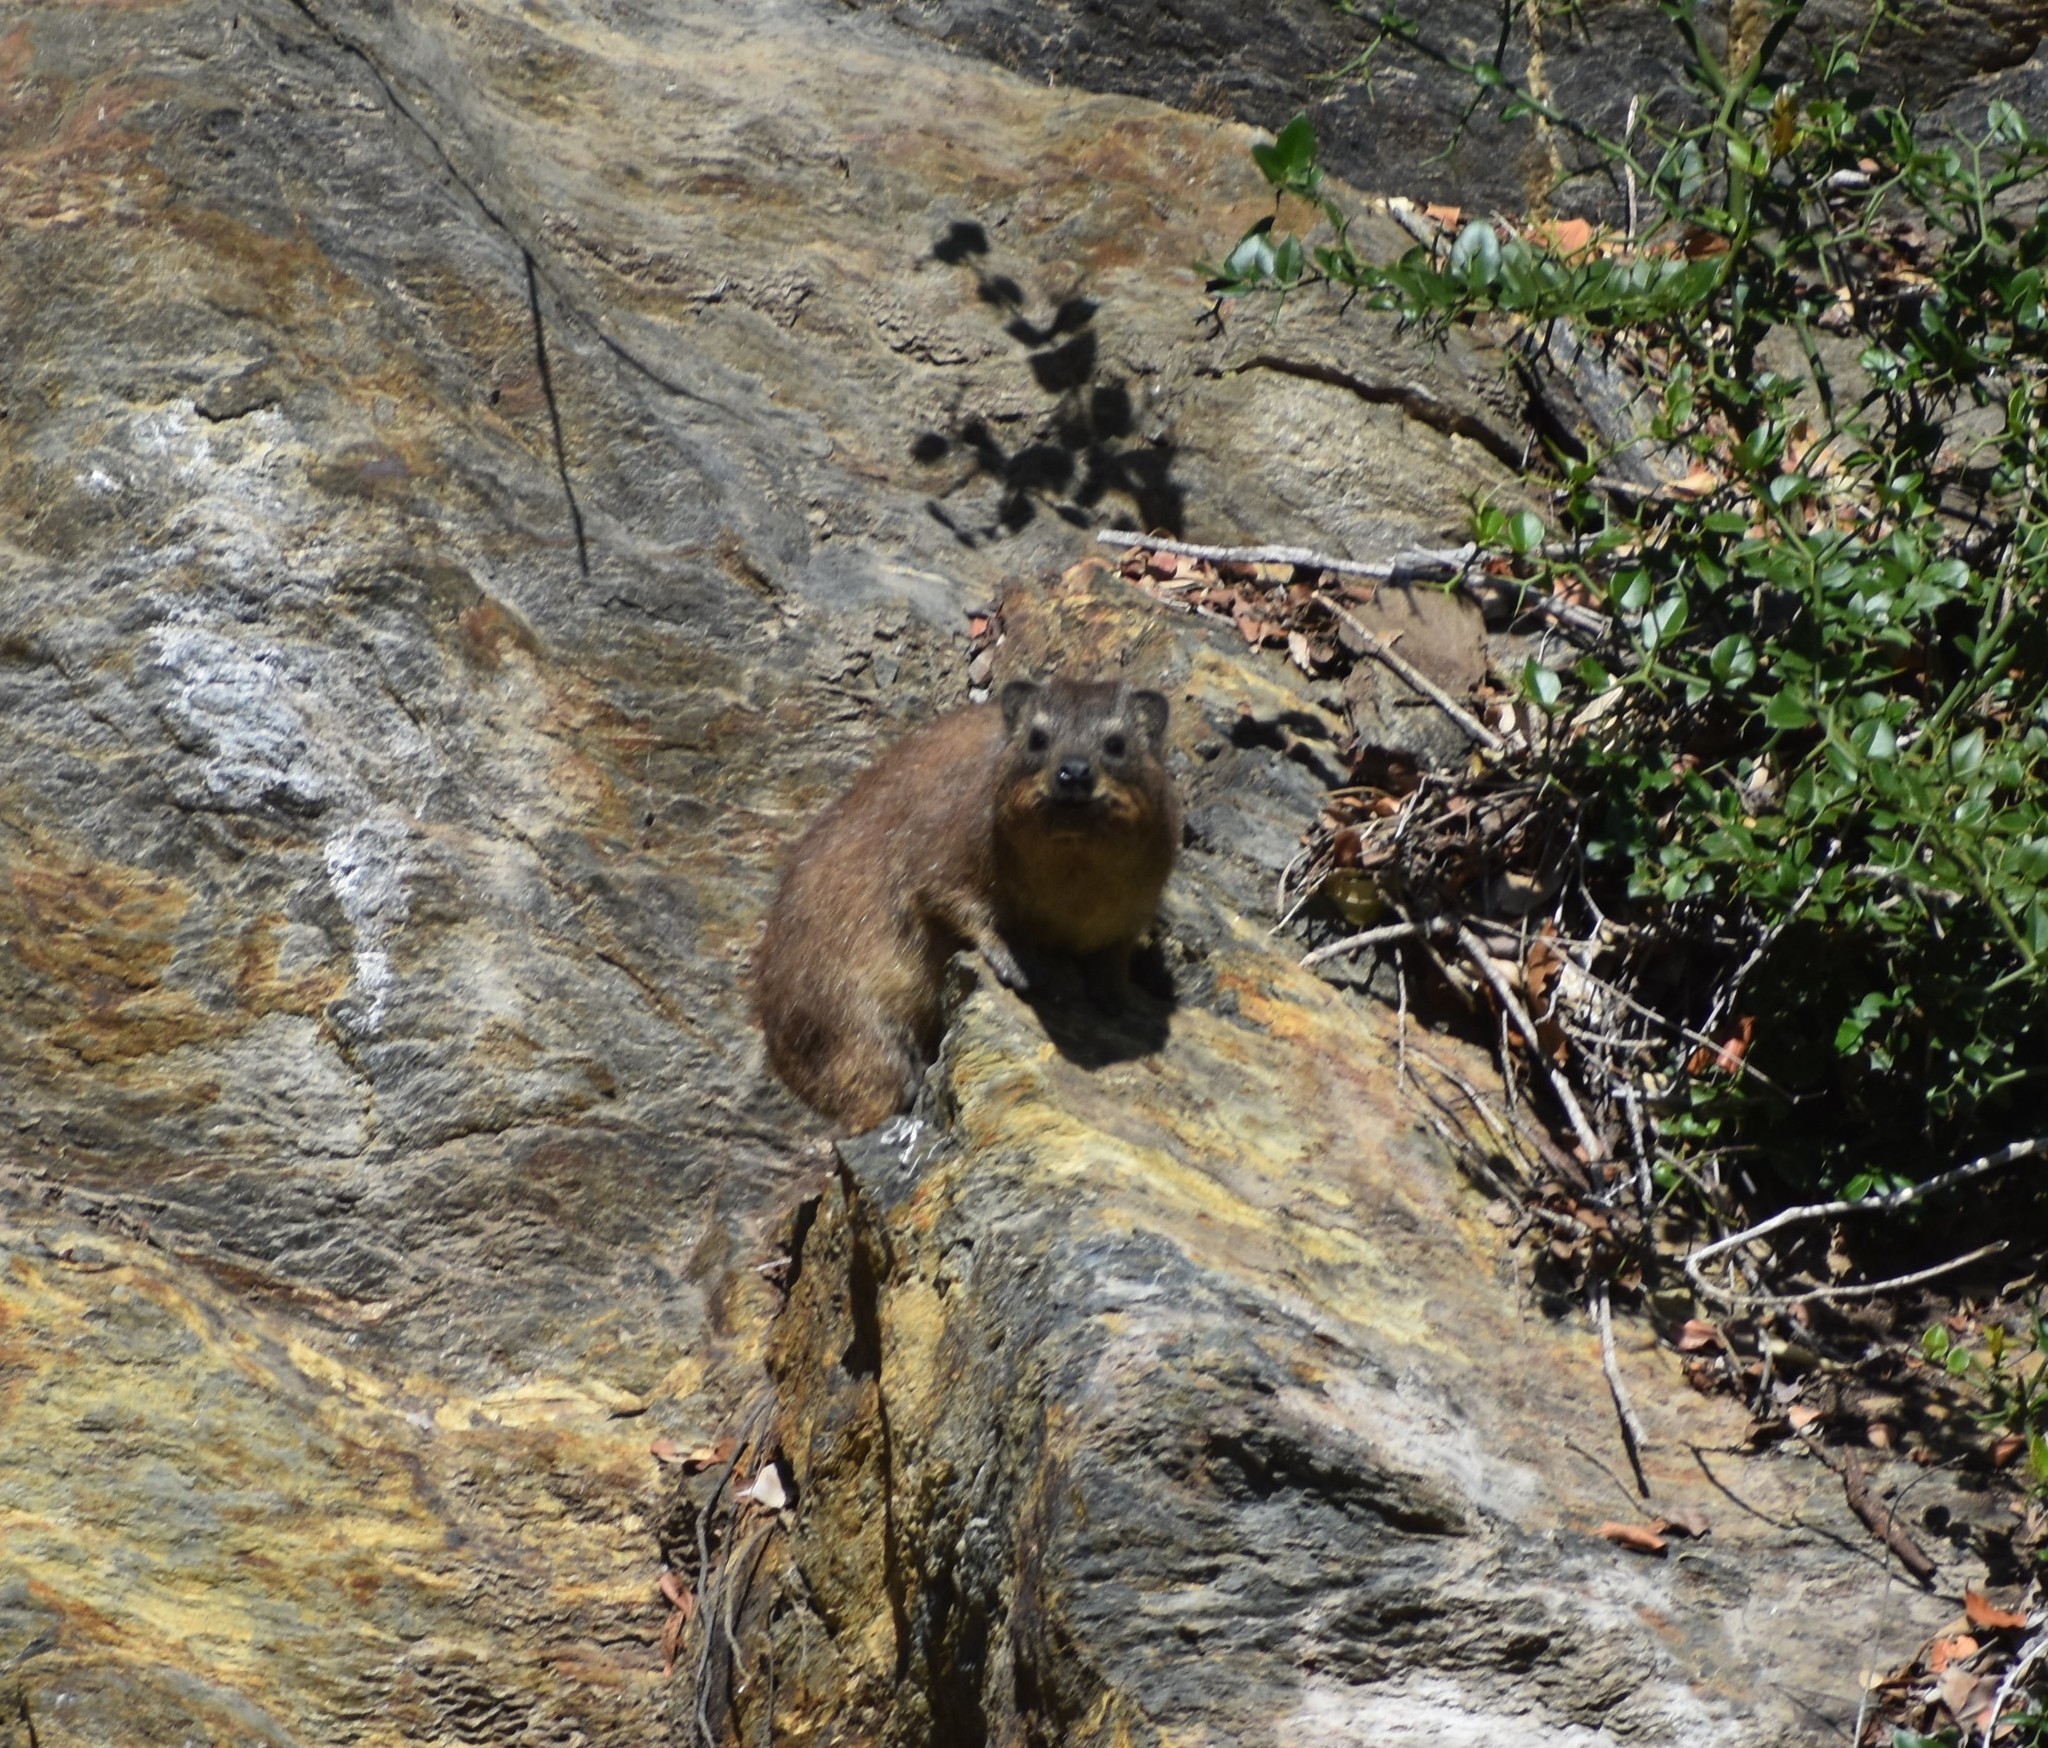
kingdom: Animalia
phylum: Chordata
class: Mammalia
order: Hyracoidea
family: Procaviidae
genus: Procavia
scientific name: Procavia capensis
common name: Rock hyrax
